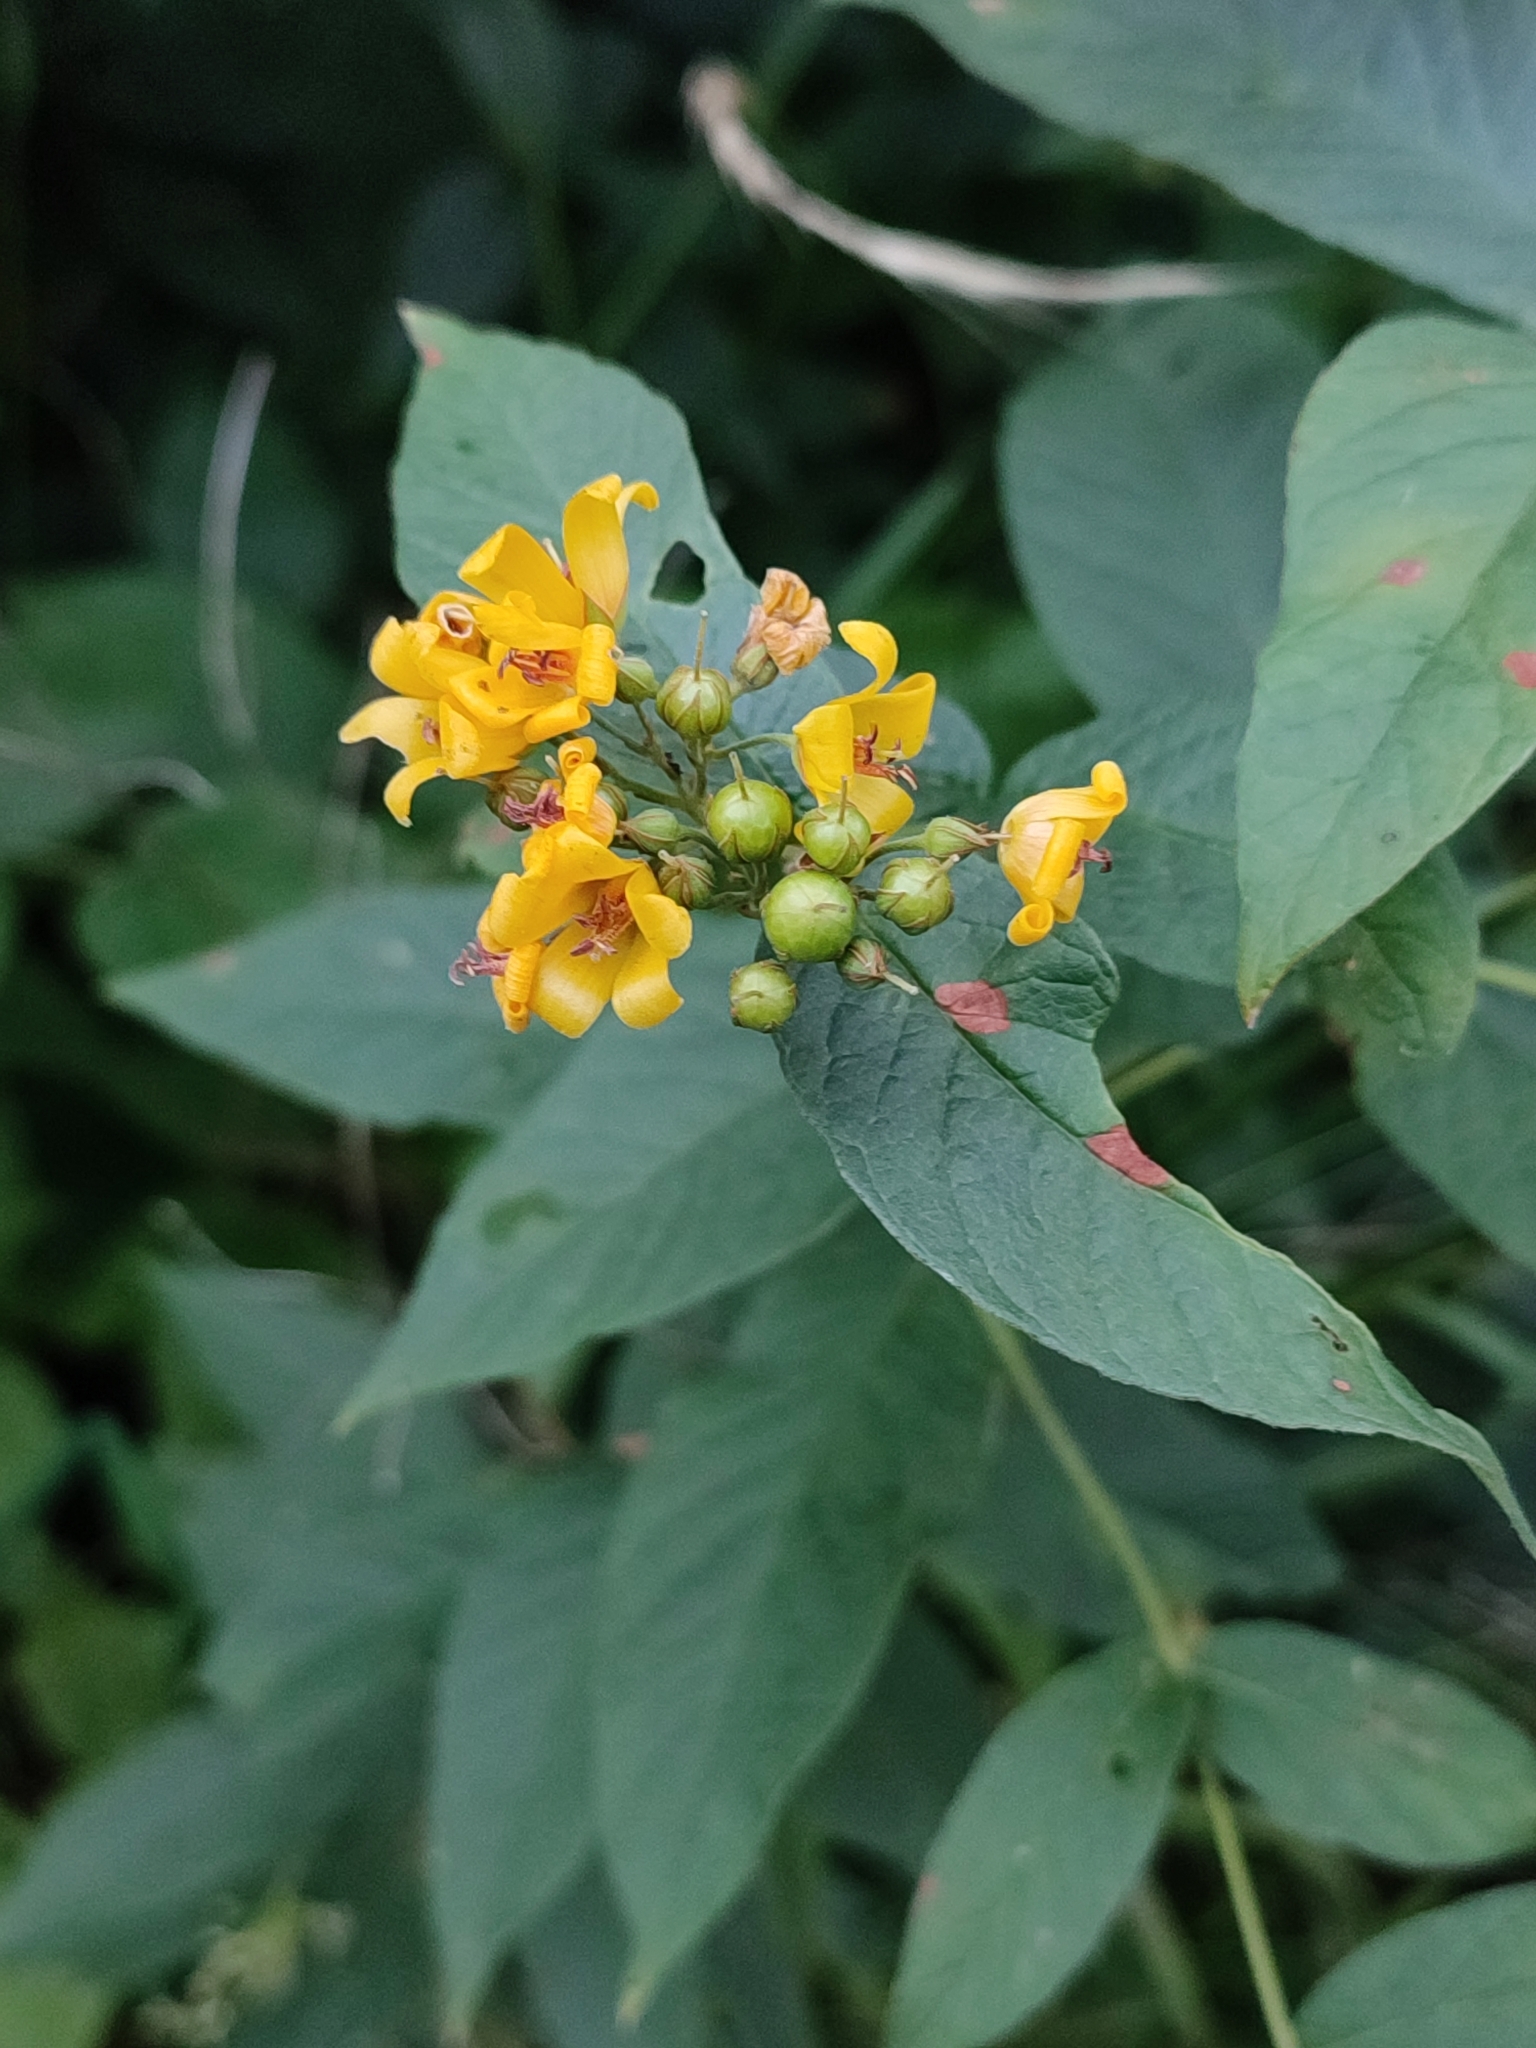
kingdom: Plantae
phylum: Tracheophyta
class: Magnoliopsida
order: Ericales
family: Primulaceae
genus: Lysimachia
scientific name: Lysimachia vulgaris
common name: Yellow loosestrife
